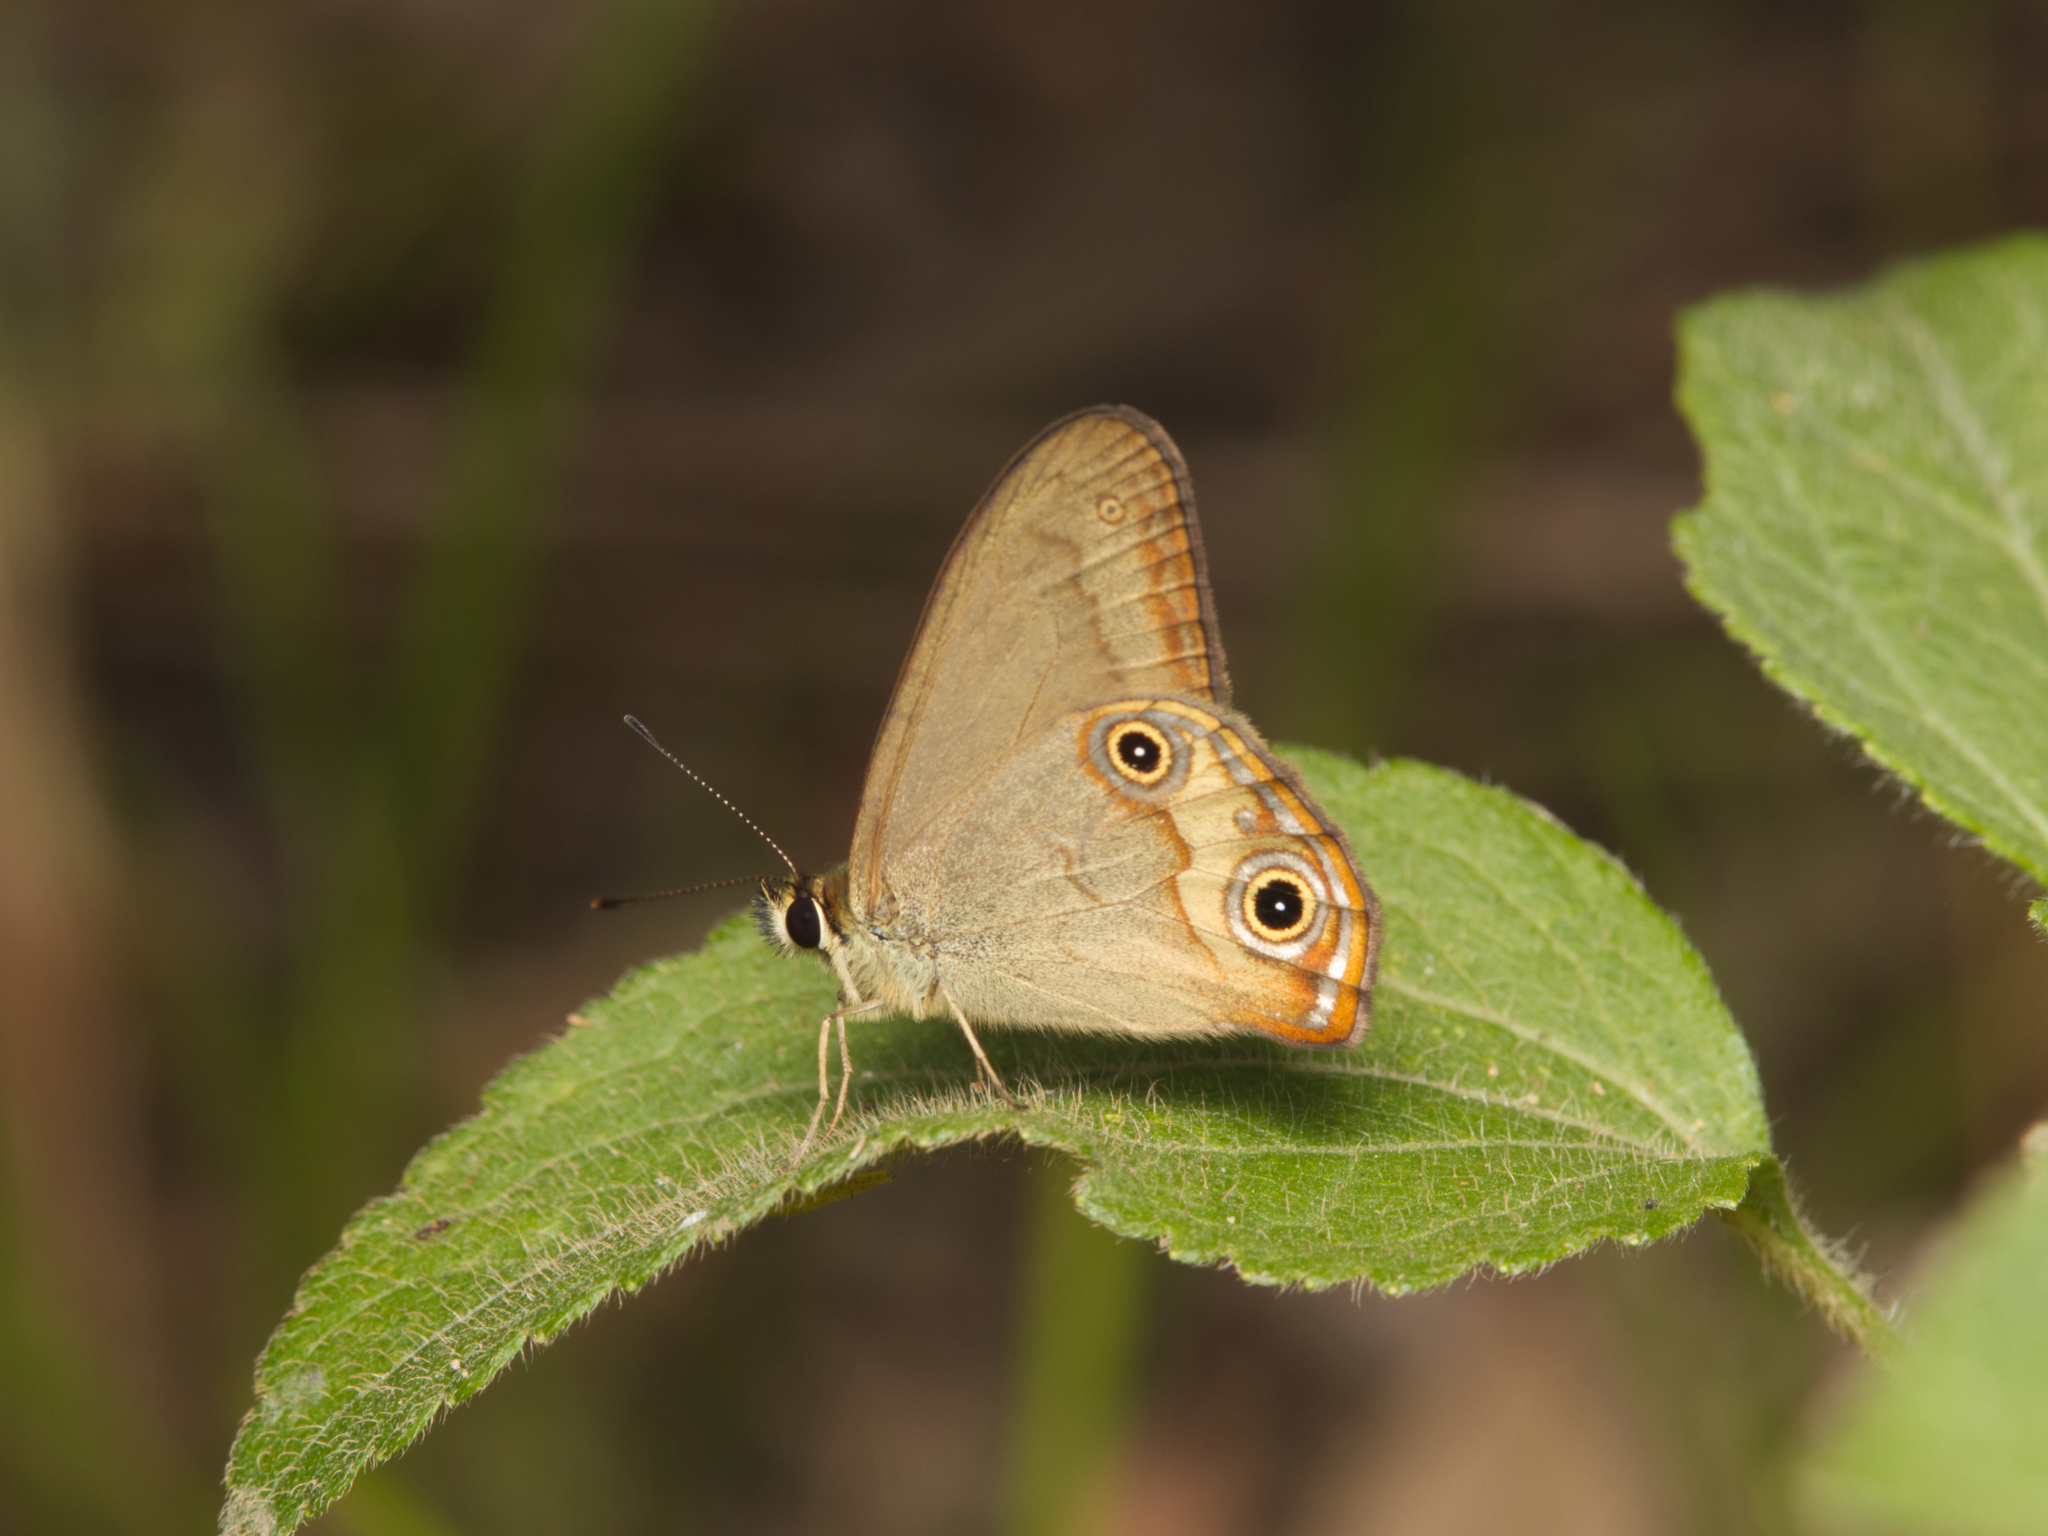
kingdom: Animalia
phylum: Arthropoda
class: Insecta
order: Lepidoptera
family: Nymphalidae
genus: Hypocysta
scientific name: Hypocysta metirius
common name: Brown ringlet
